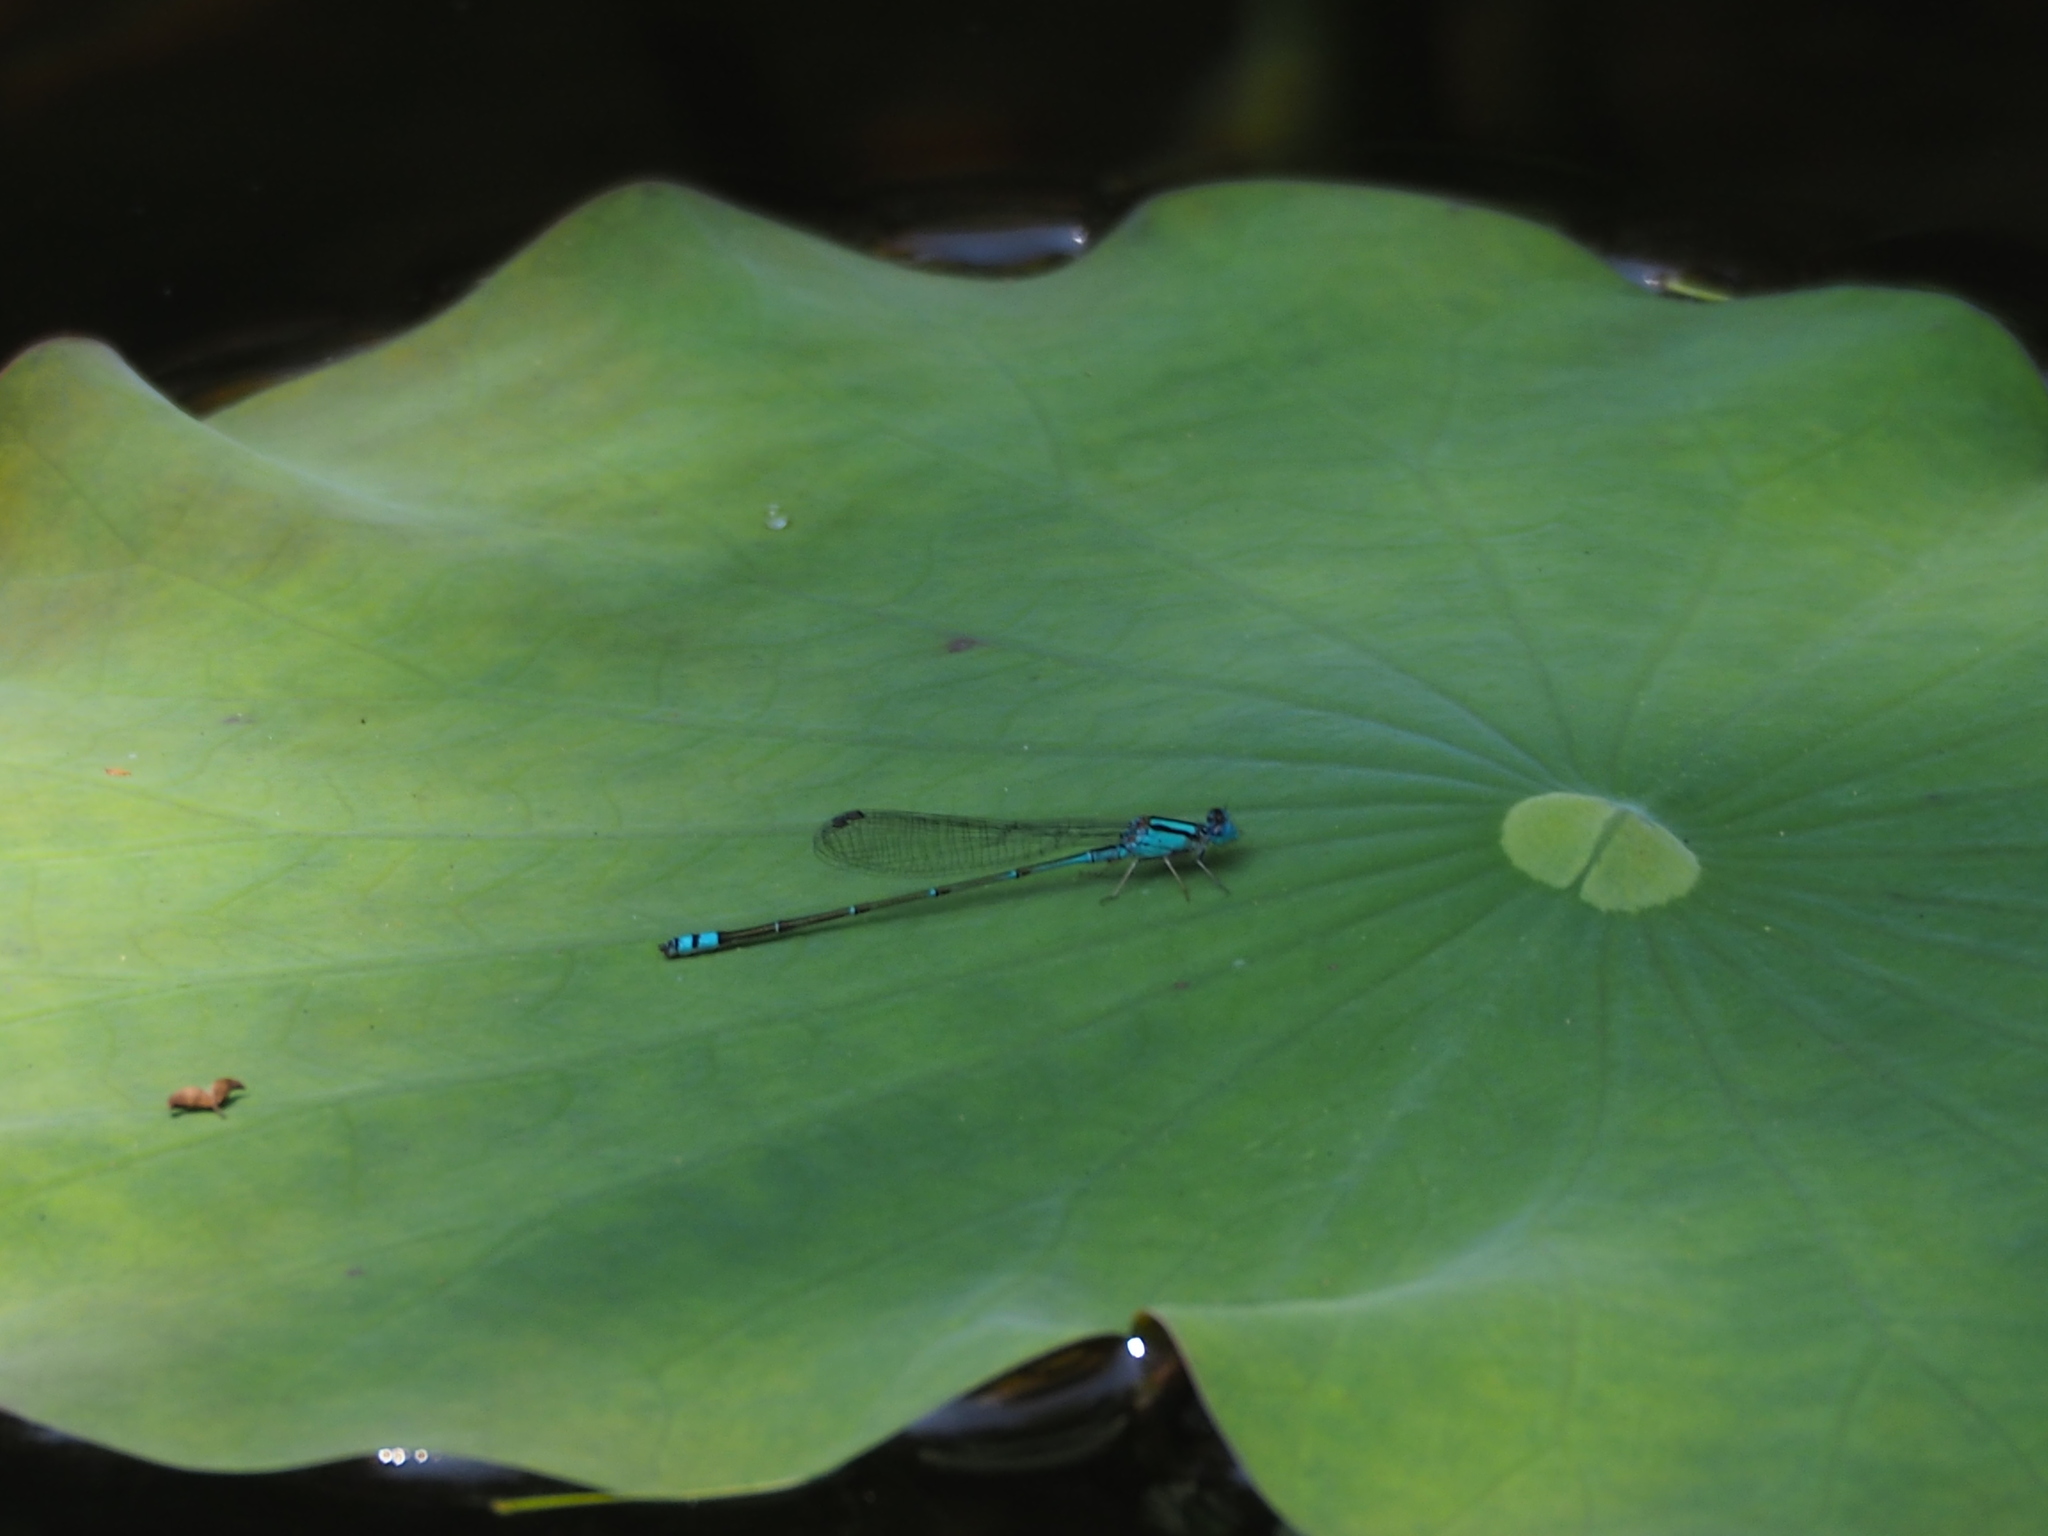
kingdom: Animalia
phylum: Arthropoda
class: Insecta
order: Odonata
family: Coenagrionidae
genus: Pseudagrion
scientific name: Pseudagrion microcephalum
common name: Blue riverdamsel
